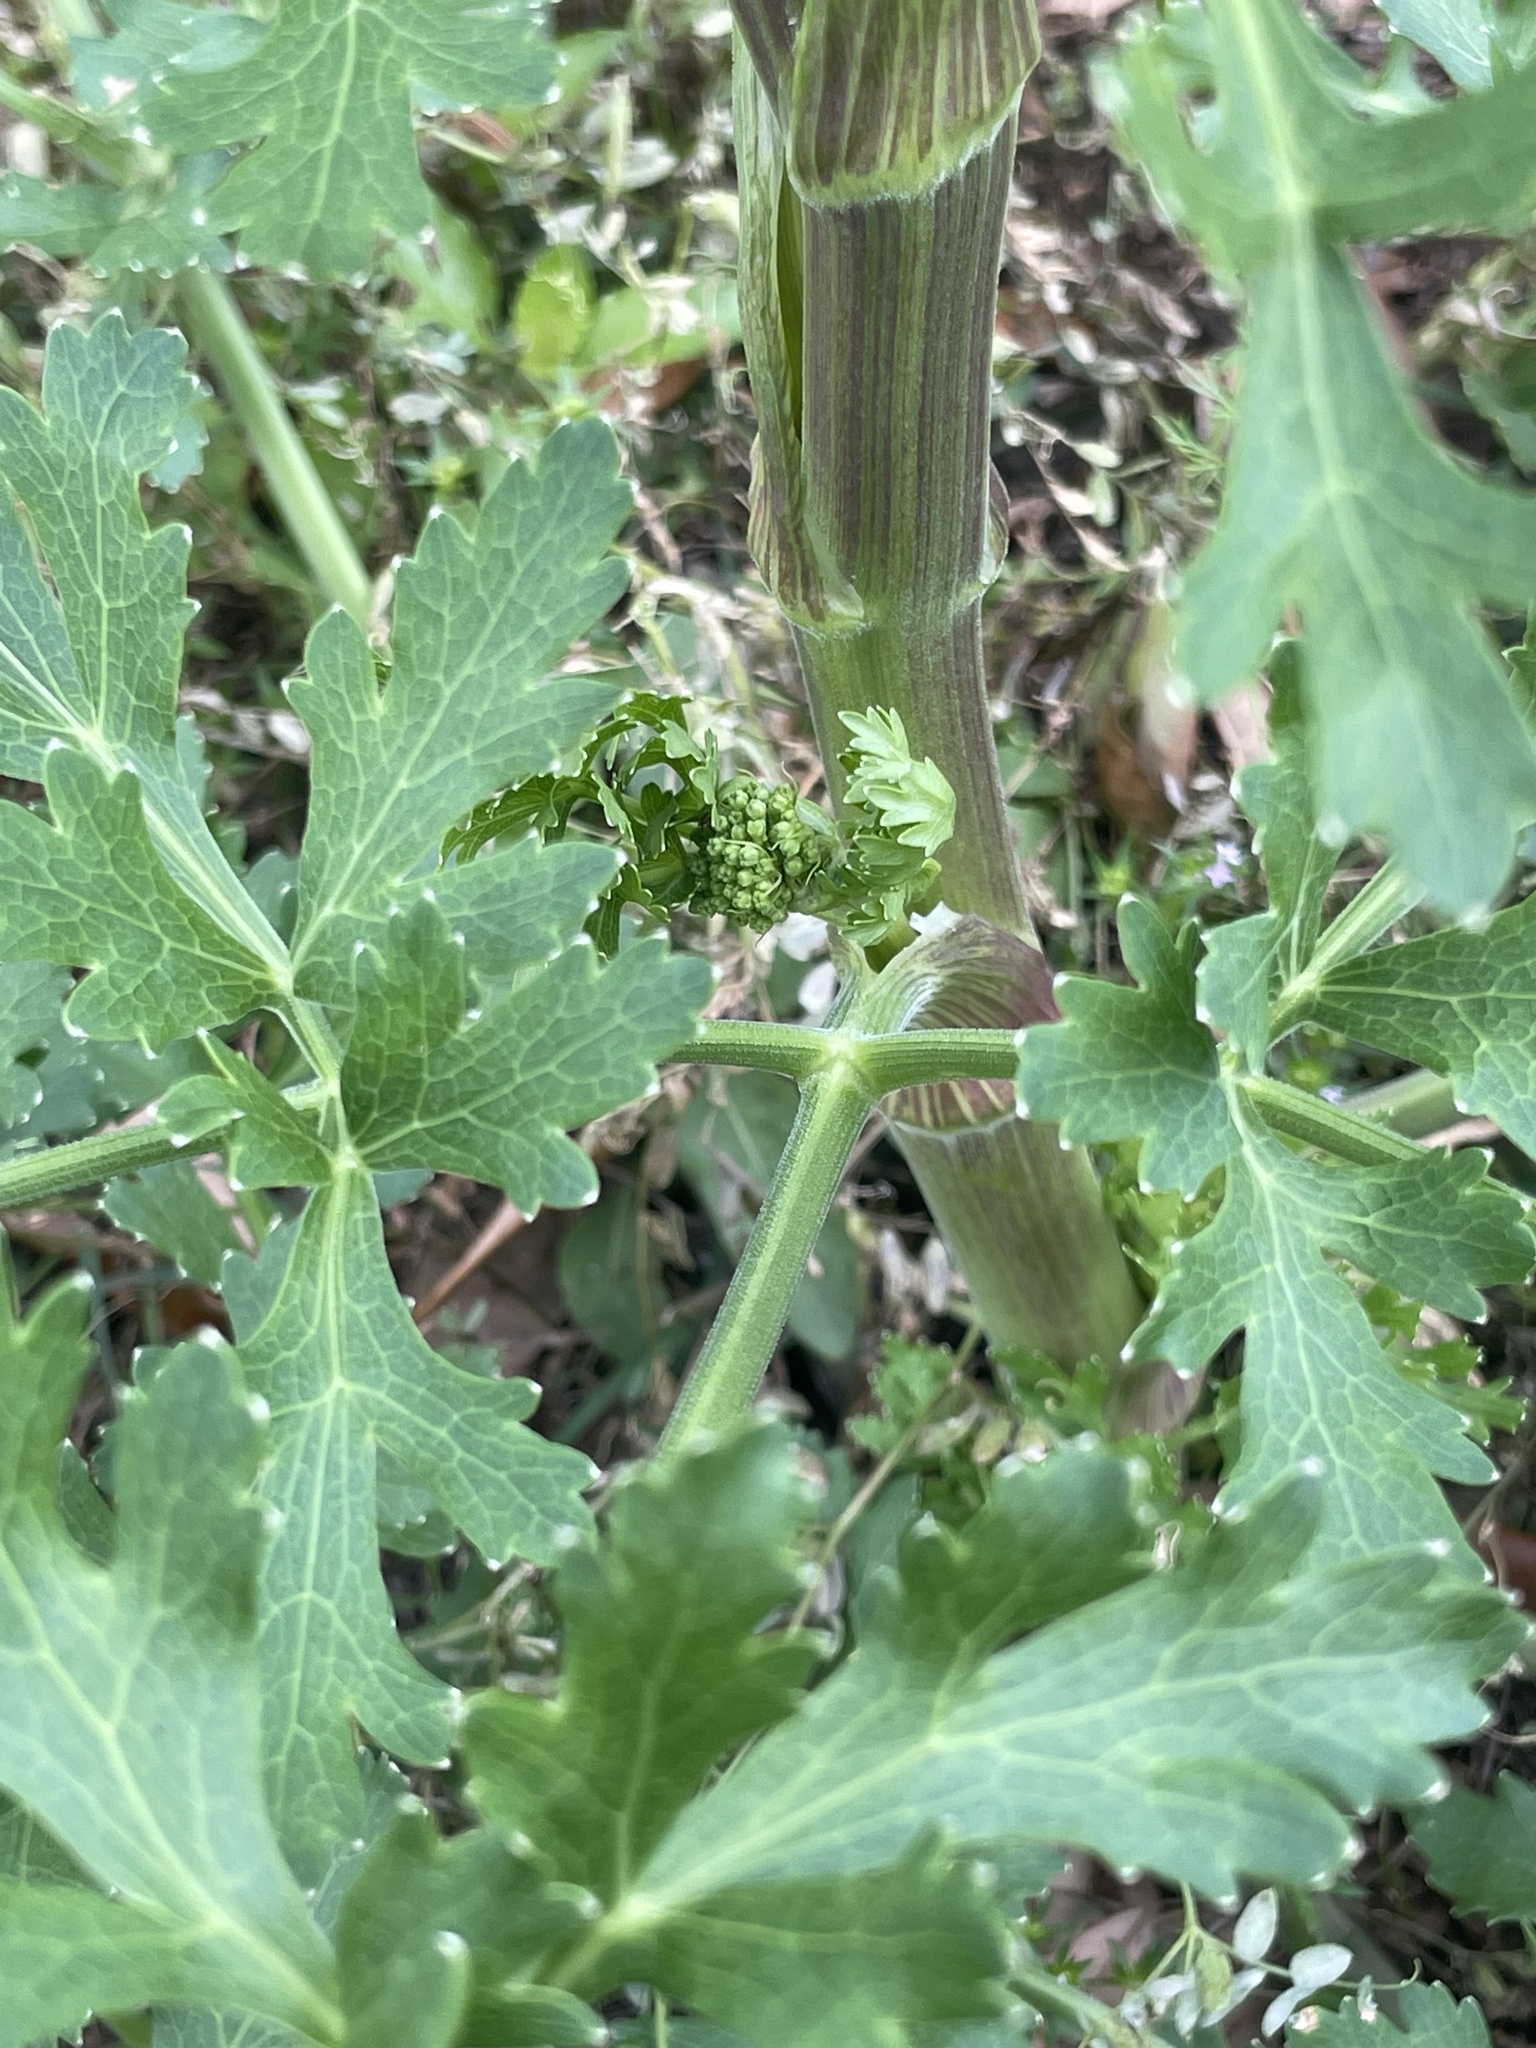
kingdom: Plantae
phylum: Tracheophyta
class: Magnoliopsida
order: Apiales
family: Apiaceae
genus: Polytaenia
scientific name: Polytaenia texana
